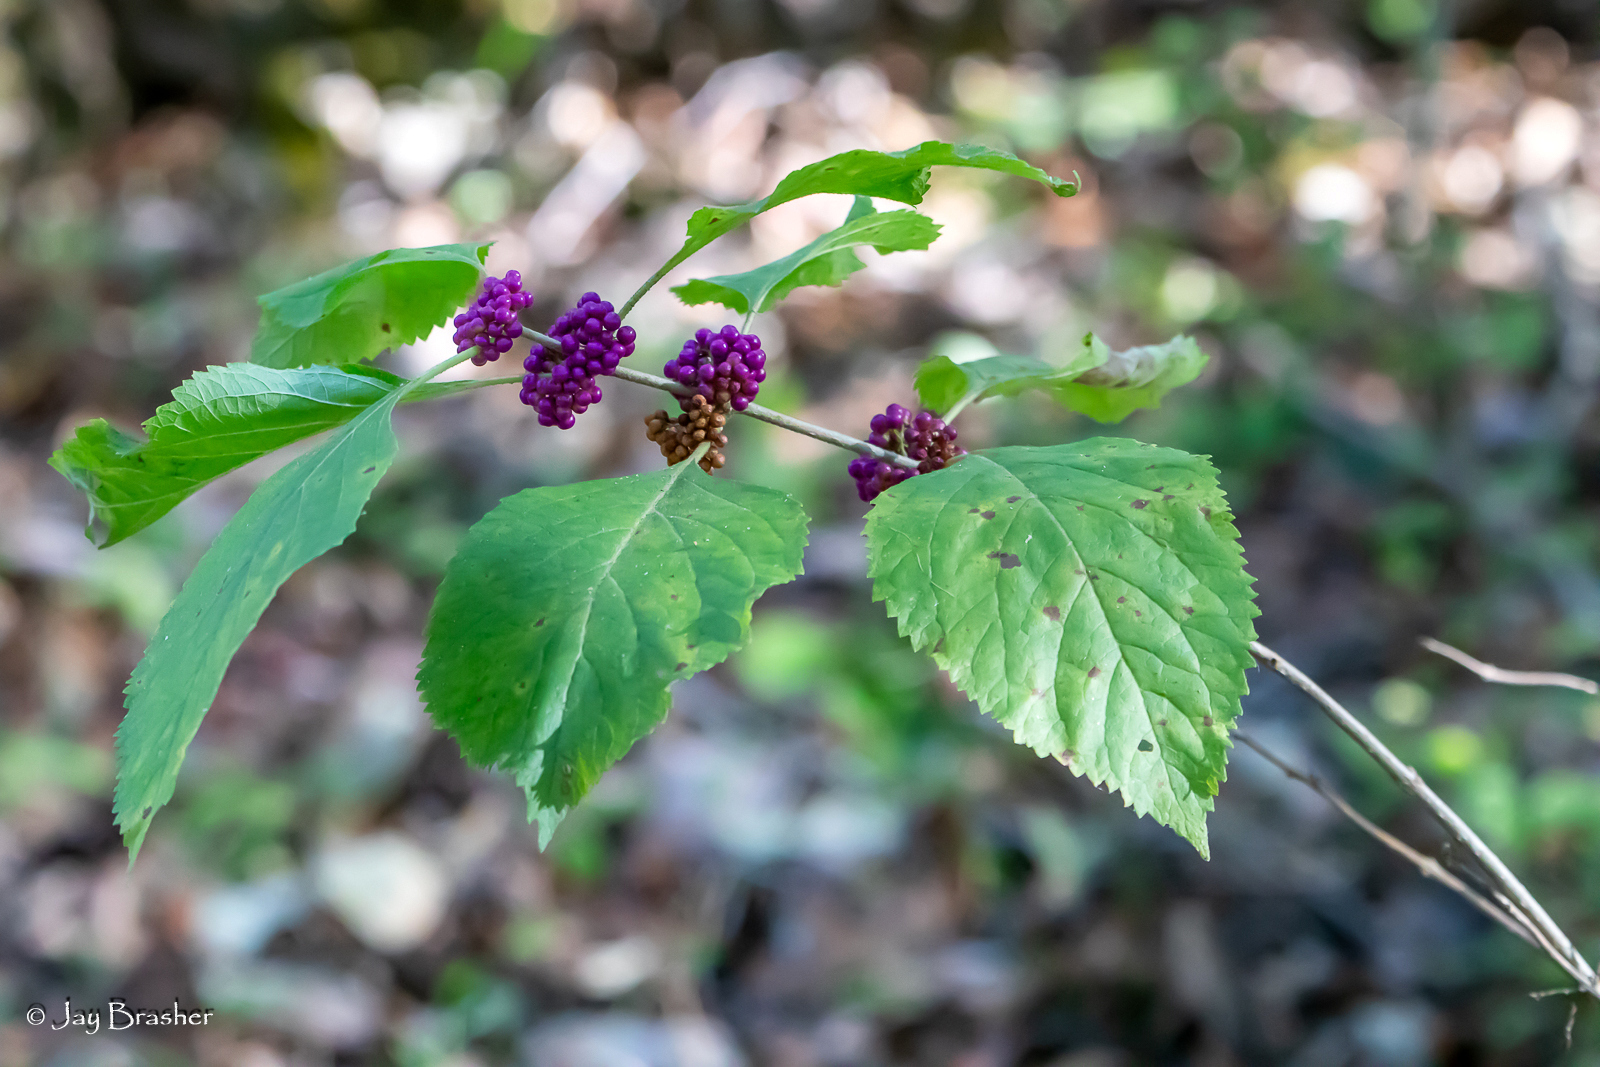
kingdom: Plantae
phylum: Tracheophyta
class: Magnoliopsida
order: Lamiales
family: Lamiaceae
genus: Callicarpa
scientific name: Callicarpa americana
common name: American beautyberry
